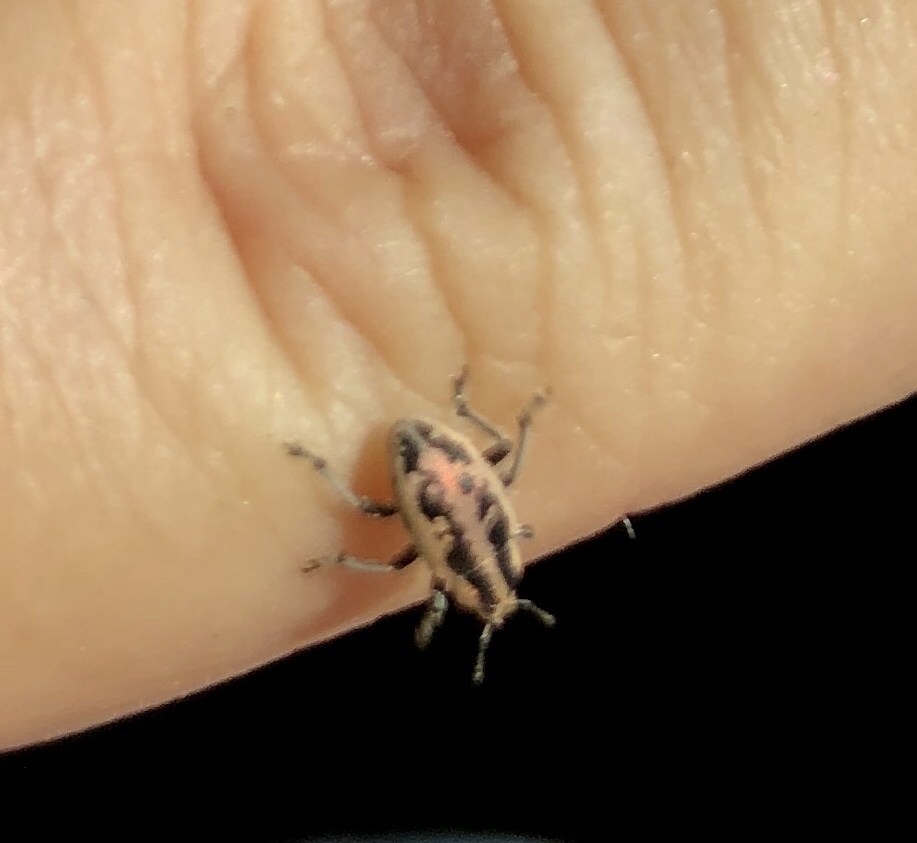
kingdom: Animalia
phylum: Arthropoda
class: Insecta
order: Coleoptera
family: Curculionidae
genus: Eudiagogus
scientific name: Eudiagogus rosenschoeldi
